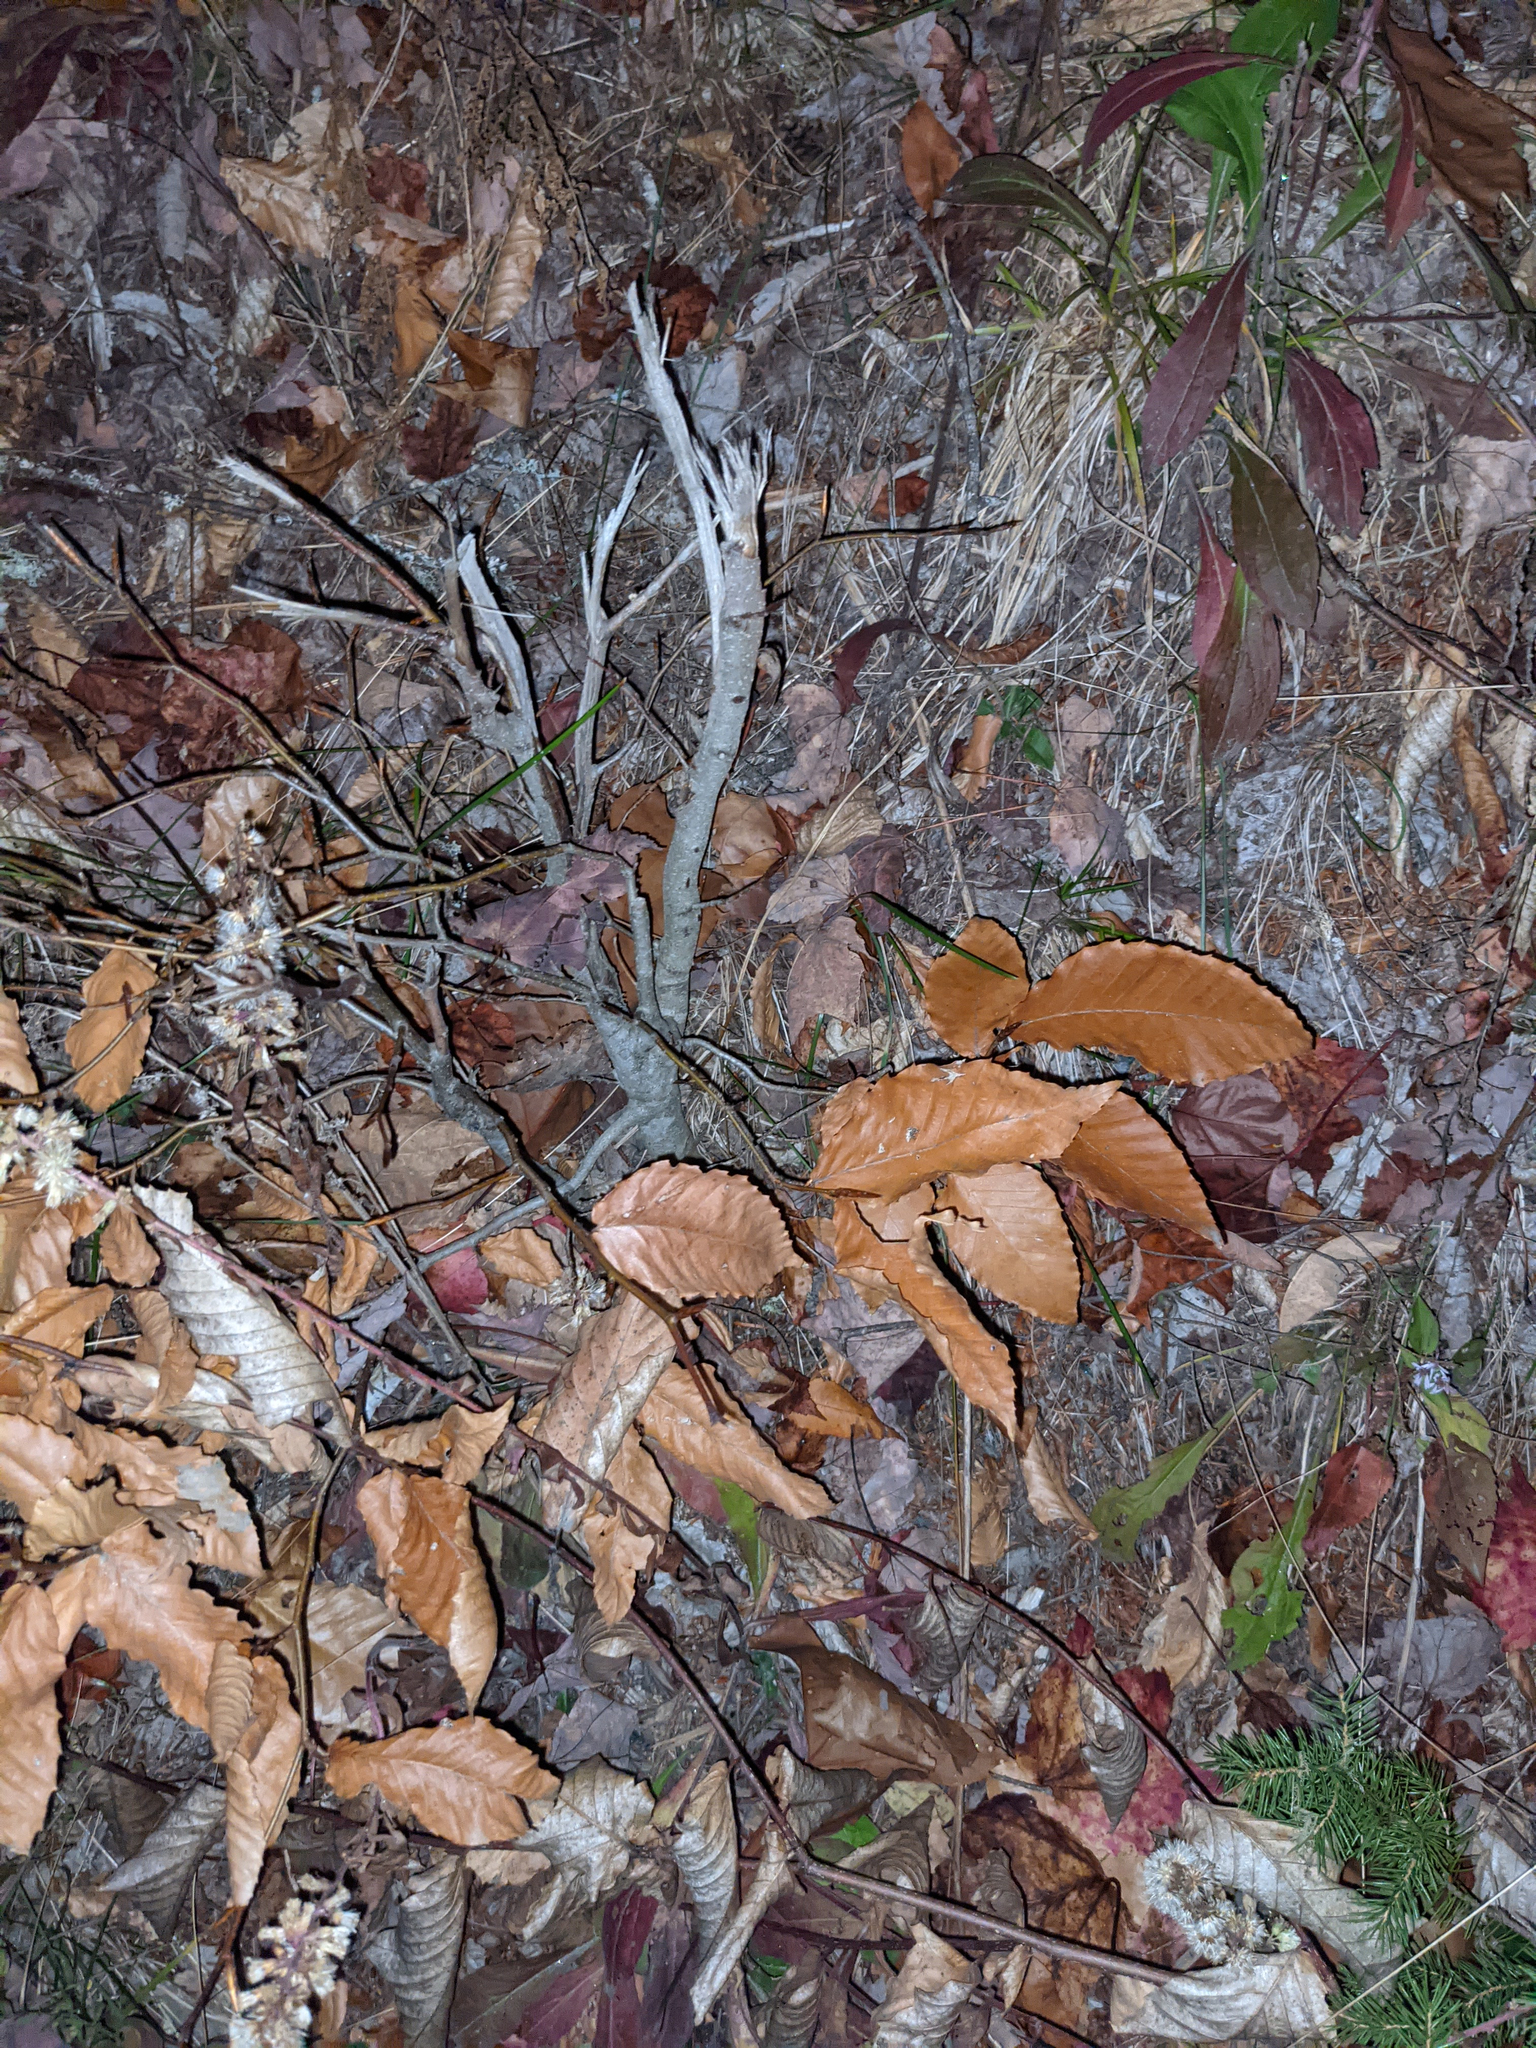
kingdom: Plantae
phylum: Tracheophyta
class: Magnoliopsida
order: Fagales
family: Fagaceae
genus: Fagus
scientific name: Fagus grandifolia
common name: American beech
